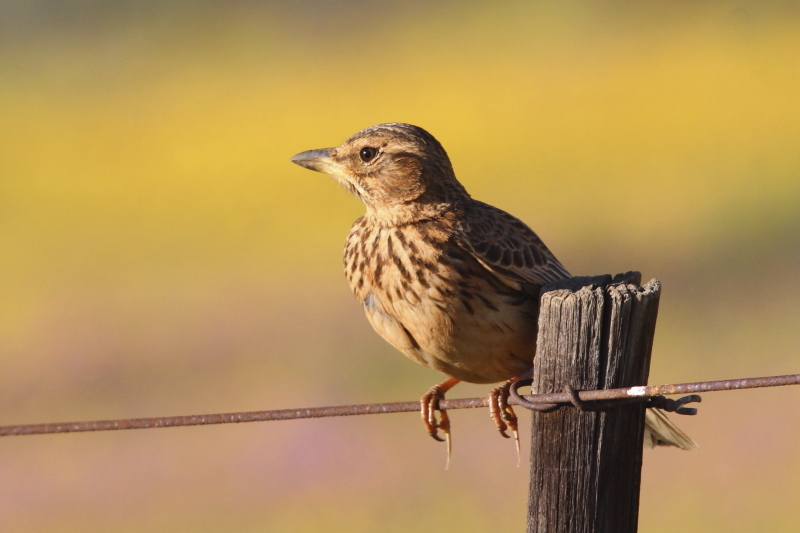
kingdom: Animalia
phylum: Chordata
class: Aves
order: Passeriformes
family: Alaudidae
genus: Galerida
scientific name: Galerida magnirostris
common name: Large-billed lark
